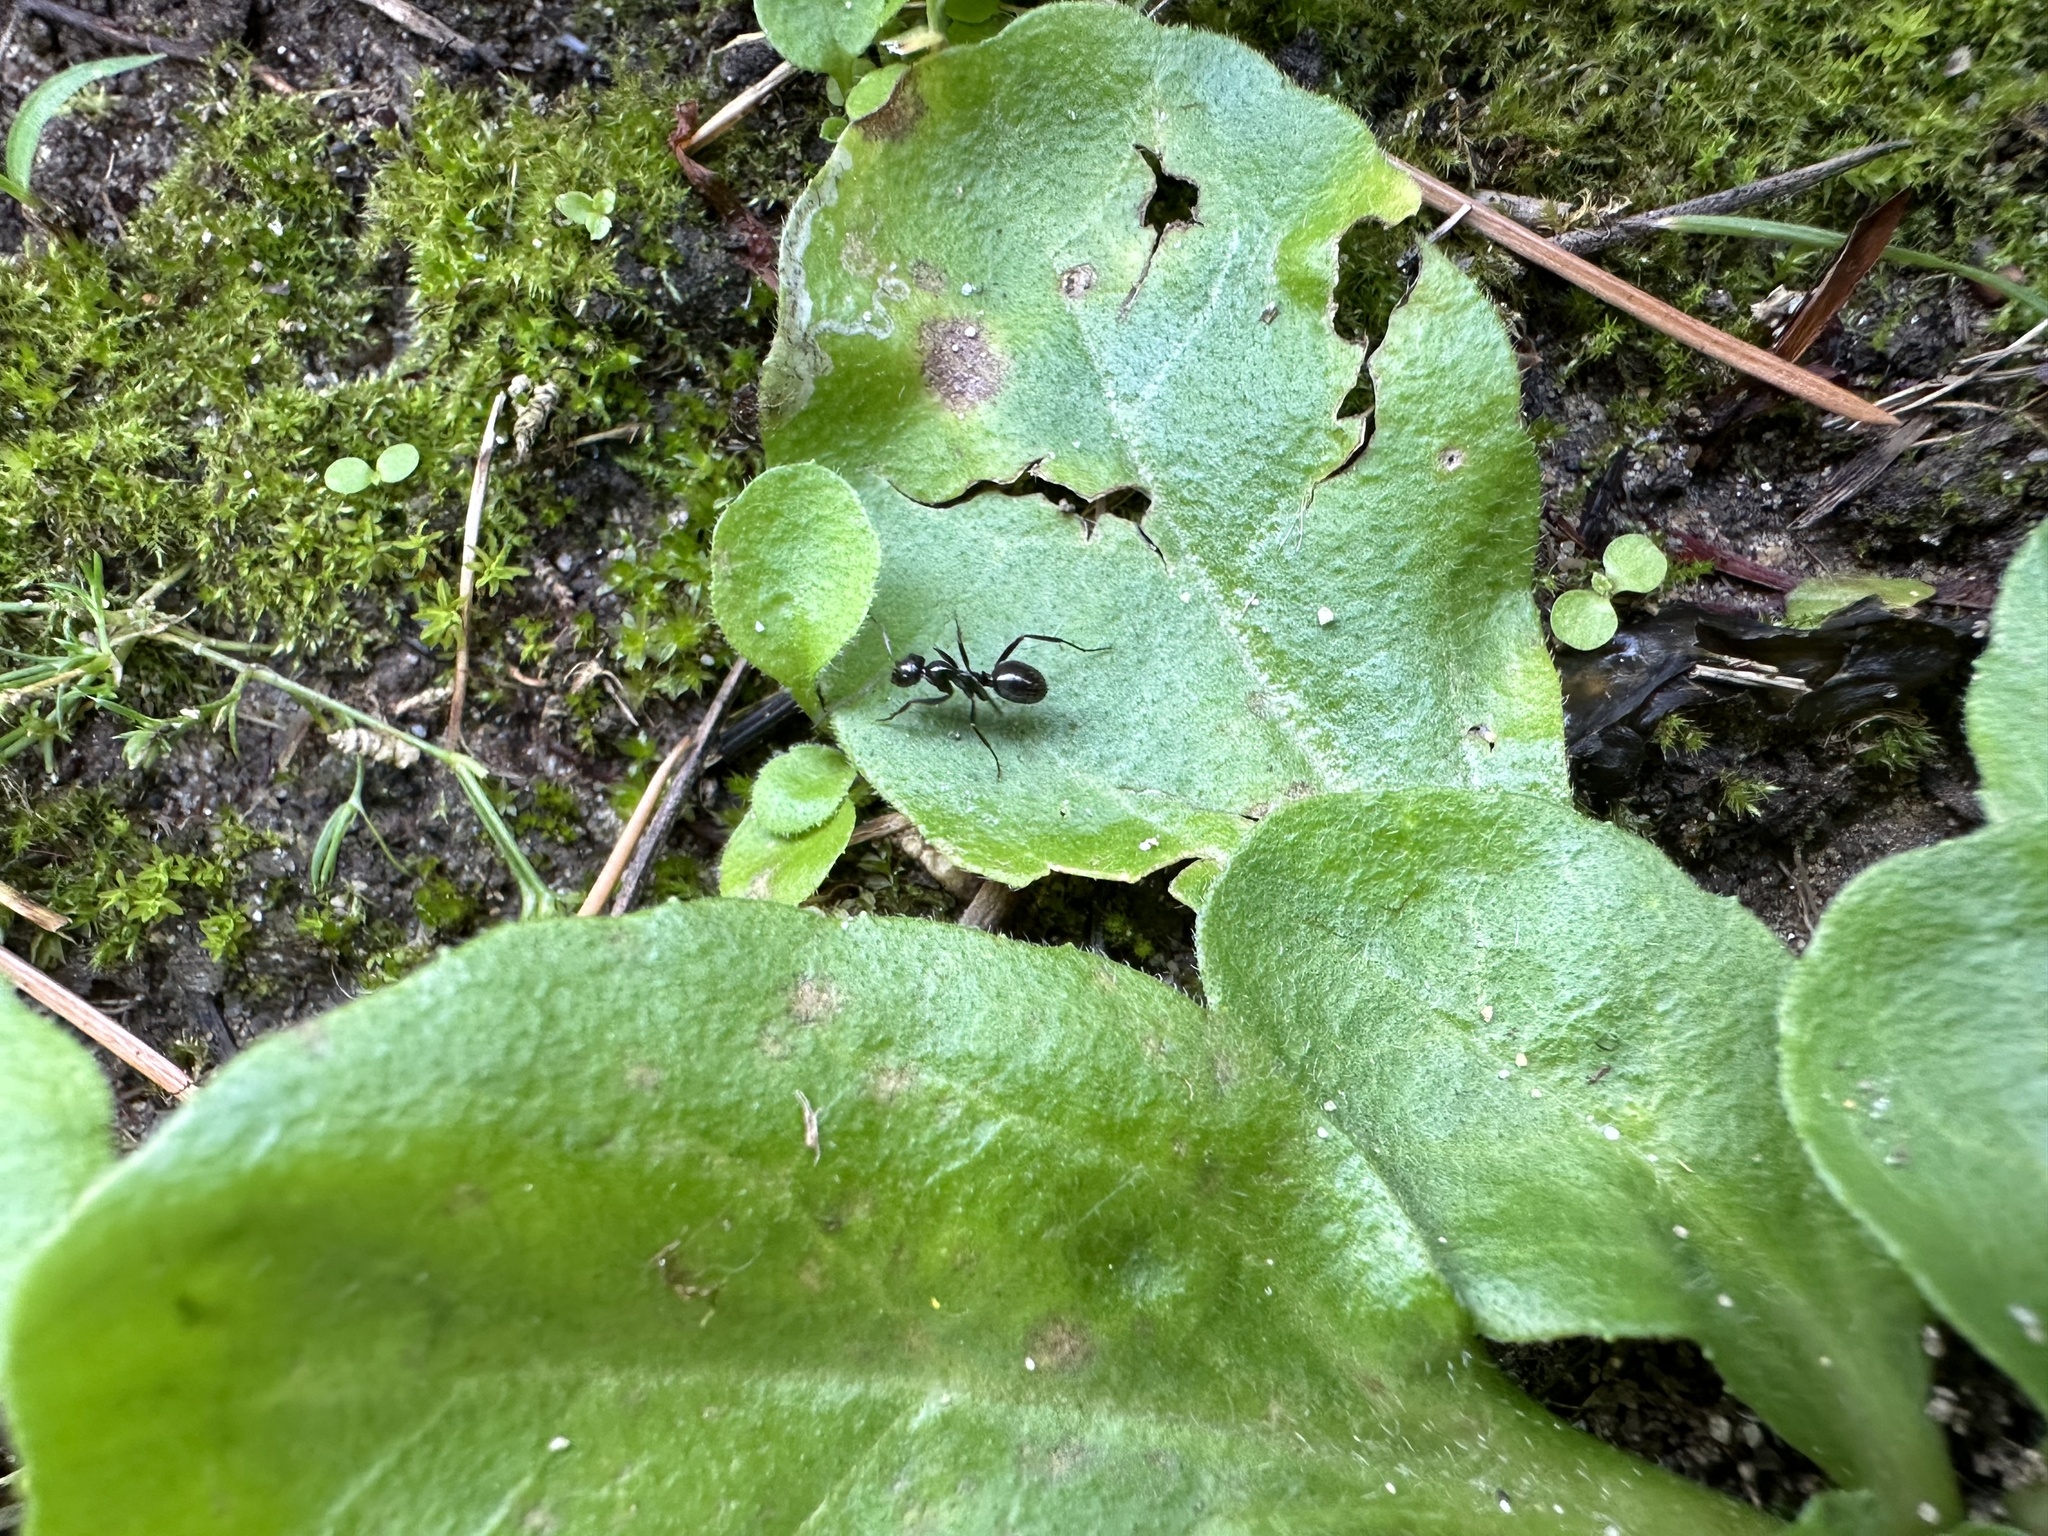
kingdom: Animalia
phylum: Arthropoda
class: Insecta
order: Hymenoptera
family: Formicidae
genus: Formica
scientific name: Formica gagates
